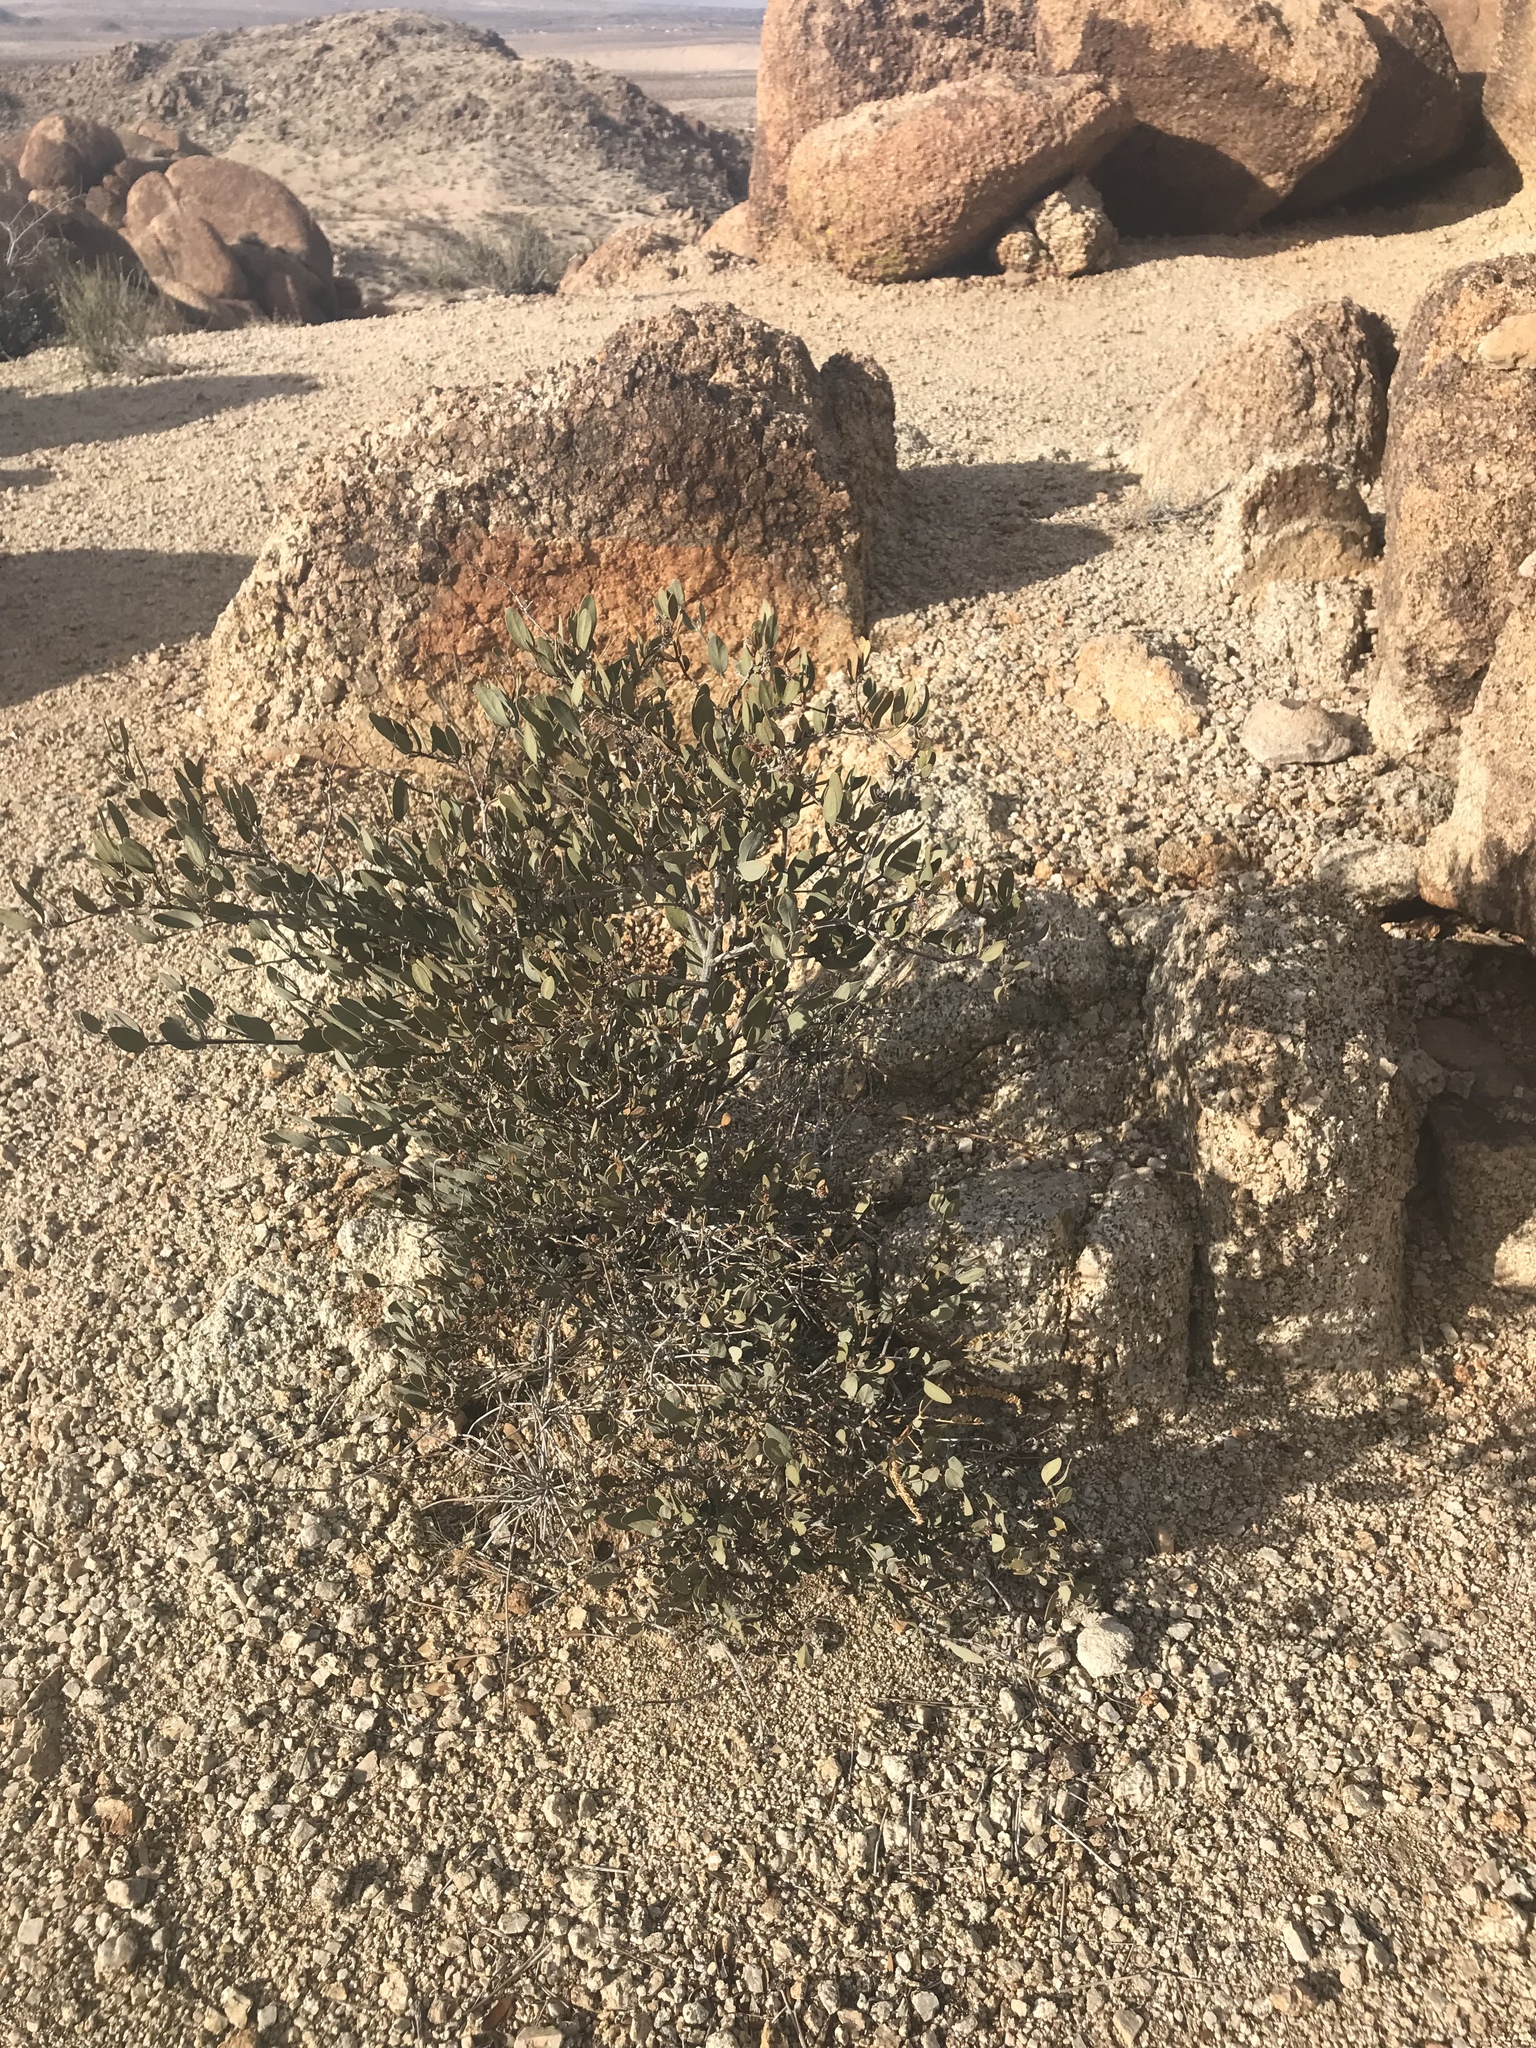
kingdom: Plantae
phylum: Tracheophyta
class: Magnoliopsida
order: Caryophyllales
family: Simmondsiaceae
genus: Simmondsia
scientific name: Simmondsia chinensis
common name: Jojoba
